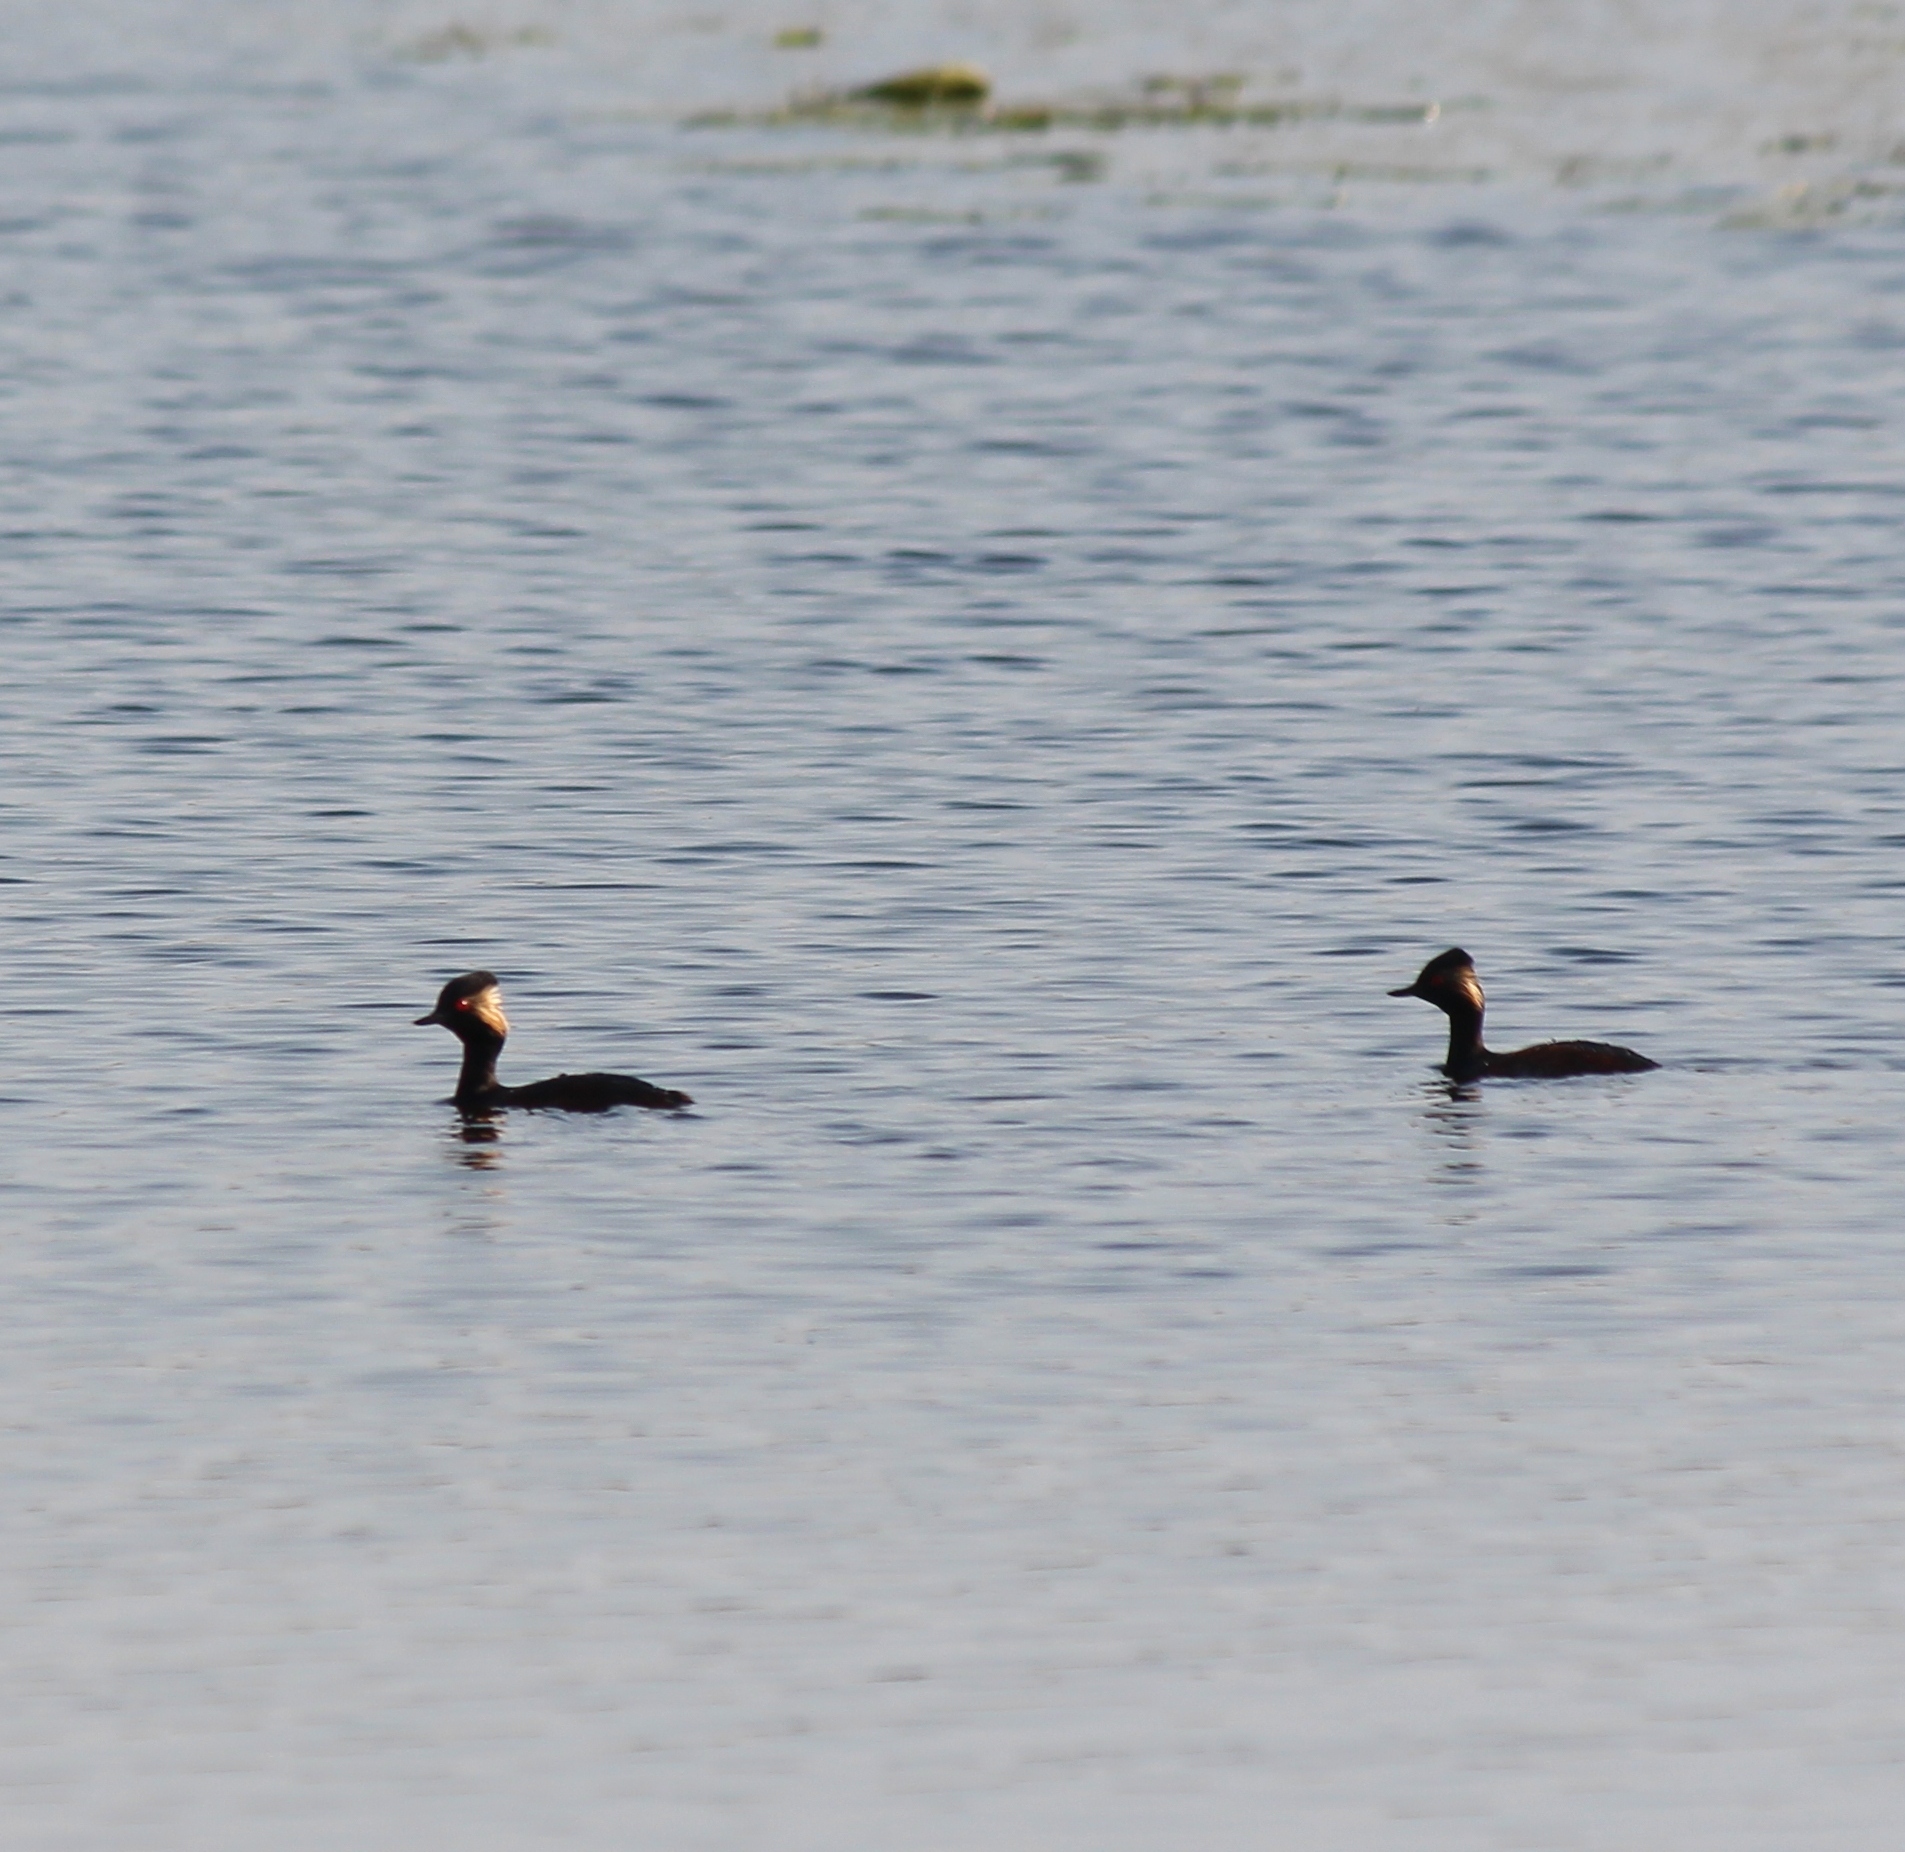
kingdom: Animalia
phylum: Chordata
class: Aves
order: Podicipediformes
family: Podicipedidae
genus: Podiceps
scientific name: Podiceps nigricollis
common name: Black-necked grebe
